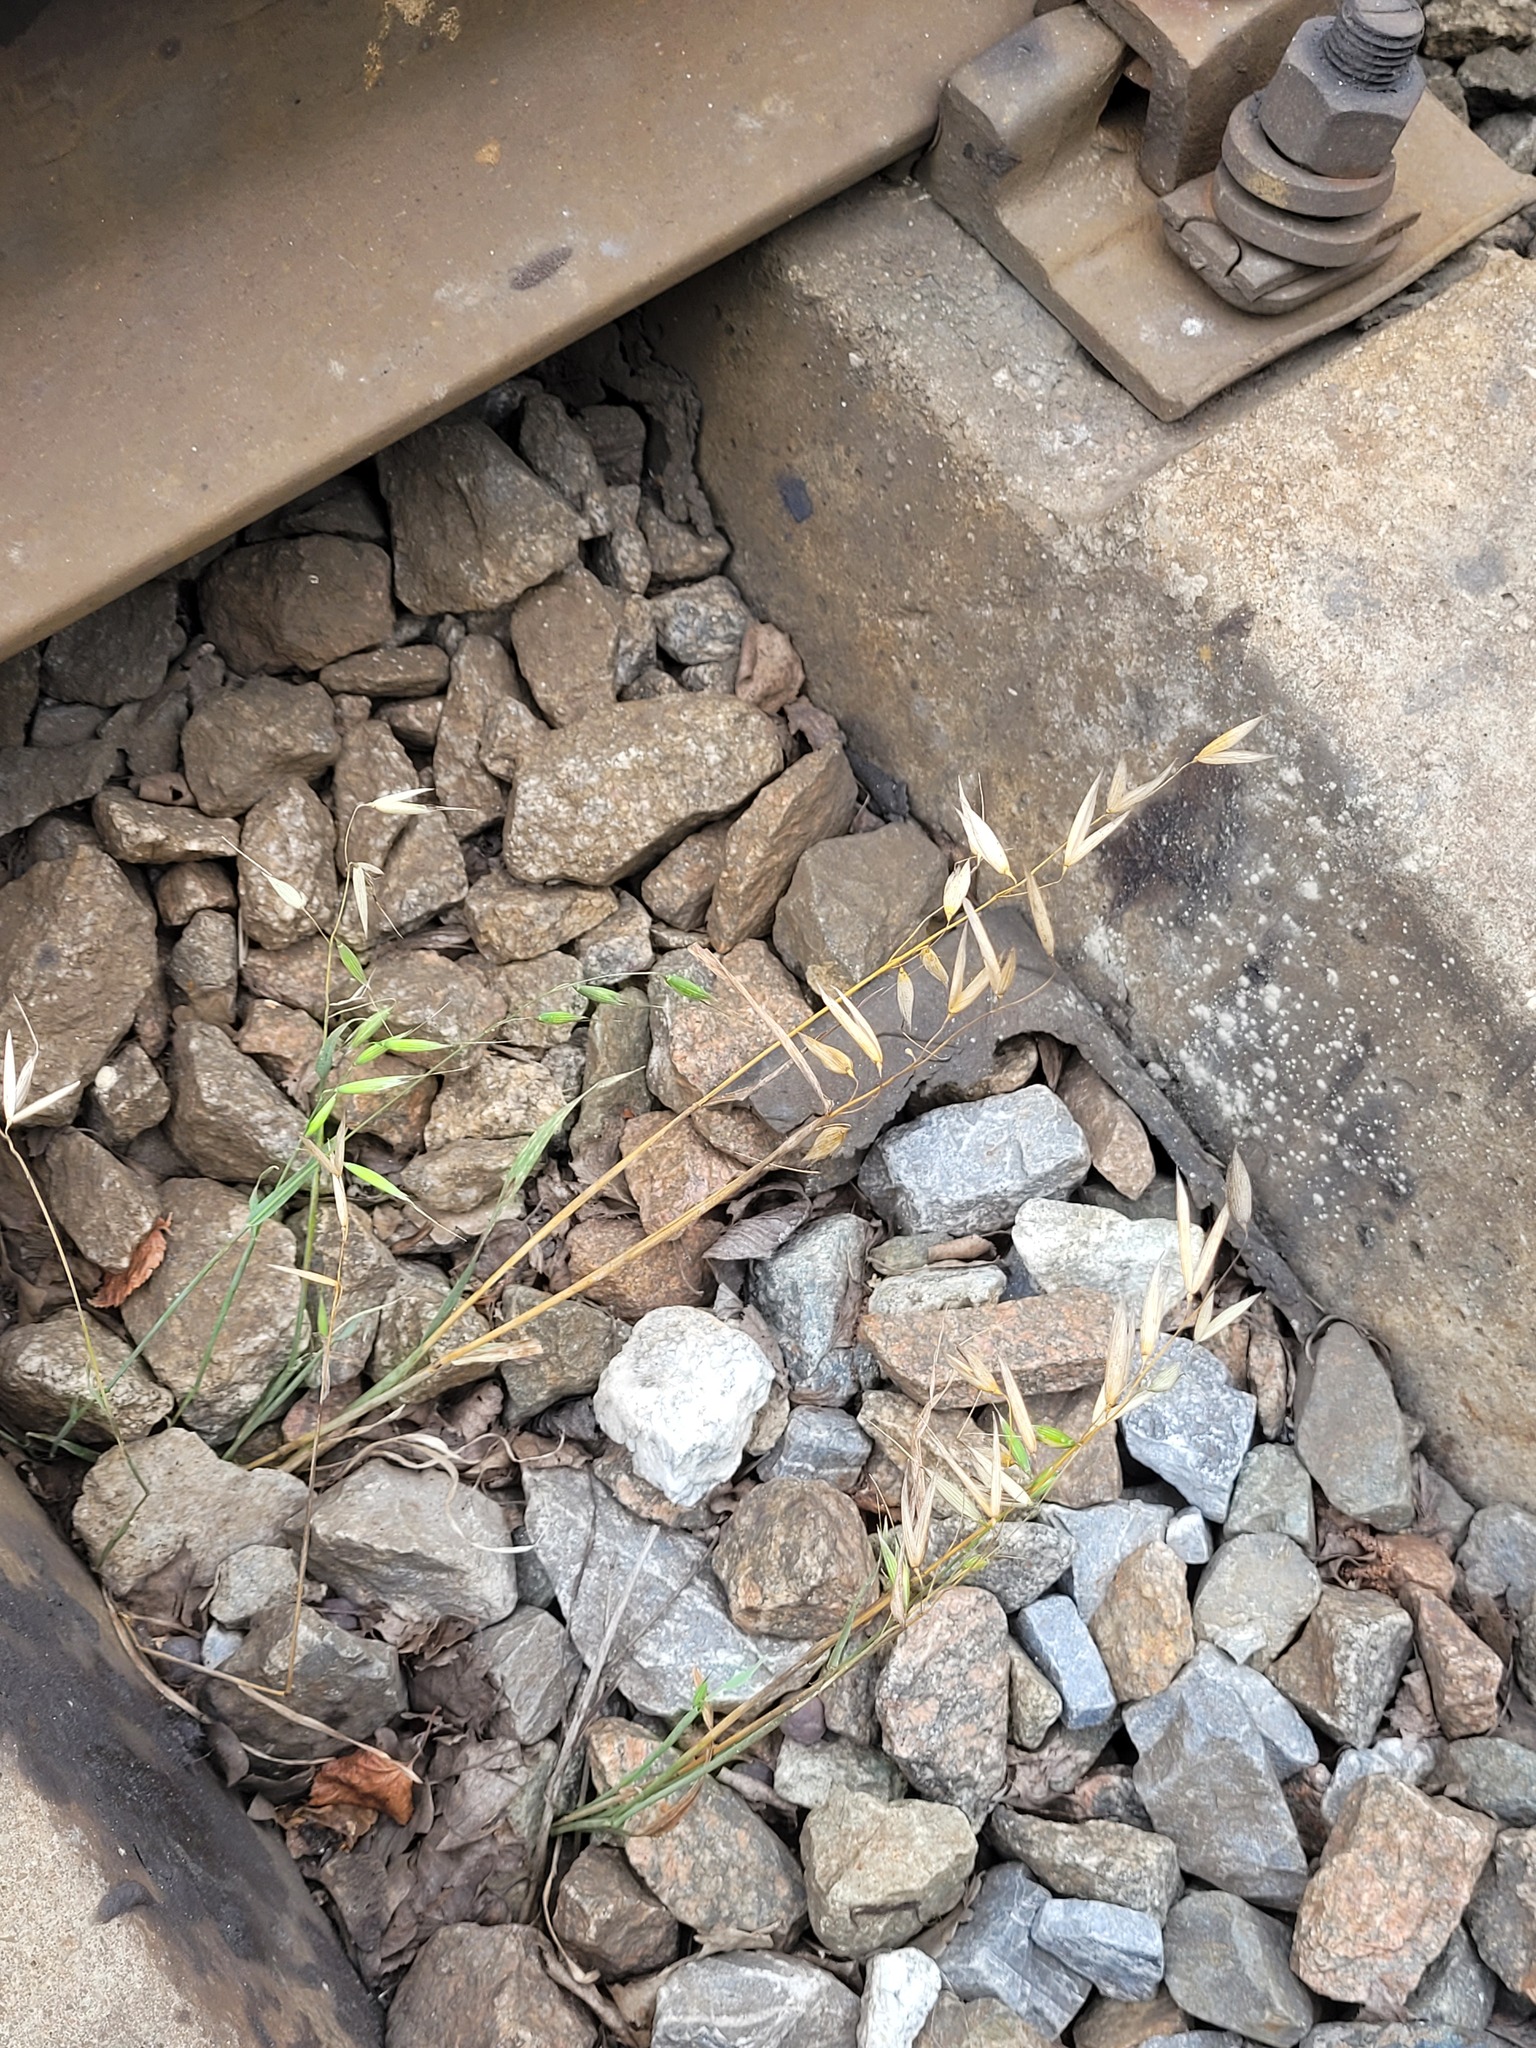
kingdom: Plantae
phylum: Tracheophyta
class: Liliopsida
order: Poales
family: Poaceae
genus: Avena
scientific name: Avena fatua
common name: Wild oat
